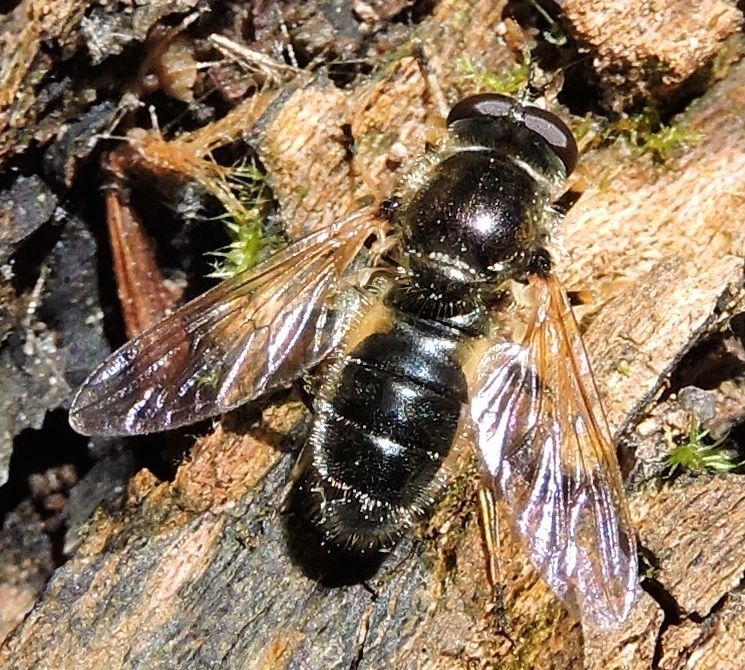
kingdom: Animalia
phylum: Arthropoda
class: Insecta
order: Diptera
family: Syrphidae
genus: Blera
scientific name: Blera badia
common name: Common wood fly
